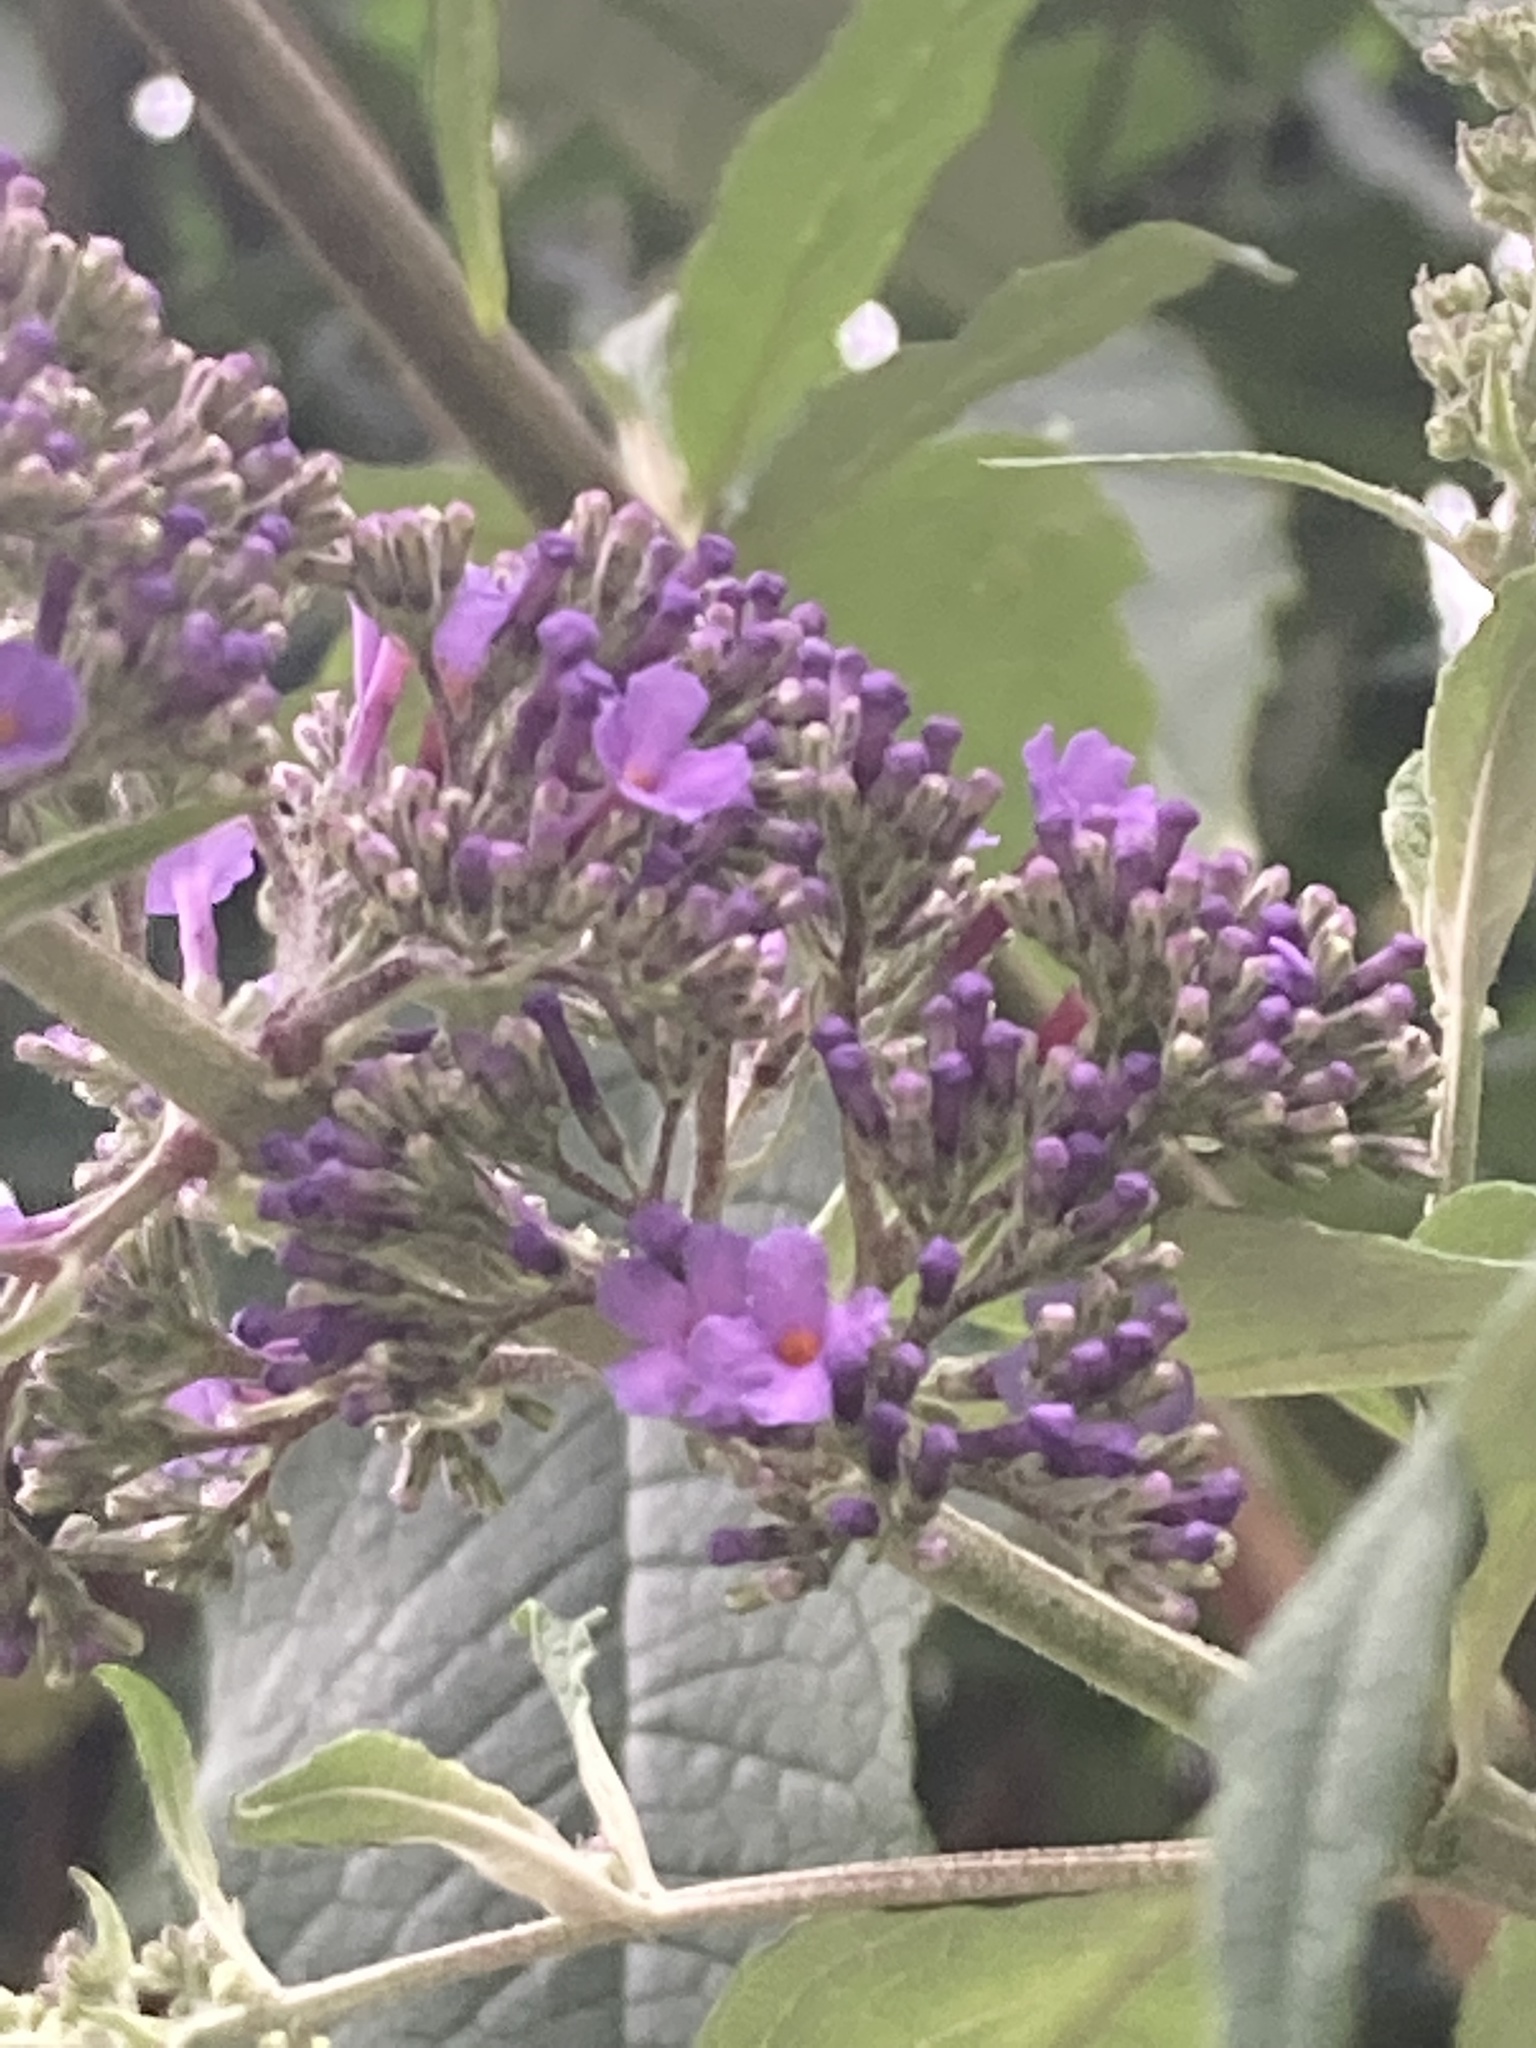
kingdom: Plantae
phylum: Tracheophyta
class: Magnoliopsida
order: Lamiales
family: Scrophulariaceae
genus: Buddleja
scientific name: Buddleja davidii
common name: Butterfly-bush
